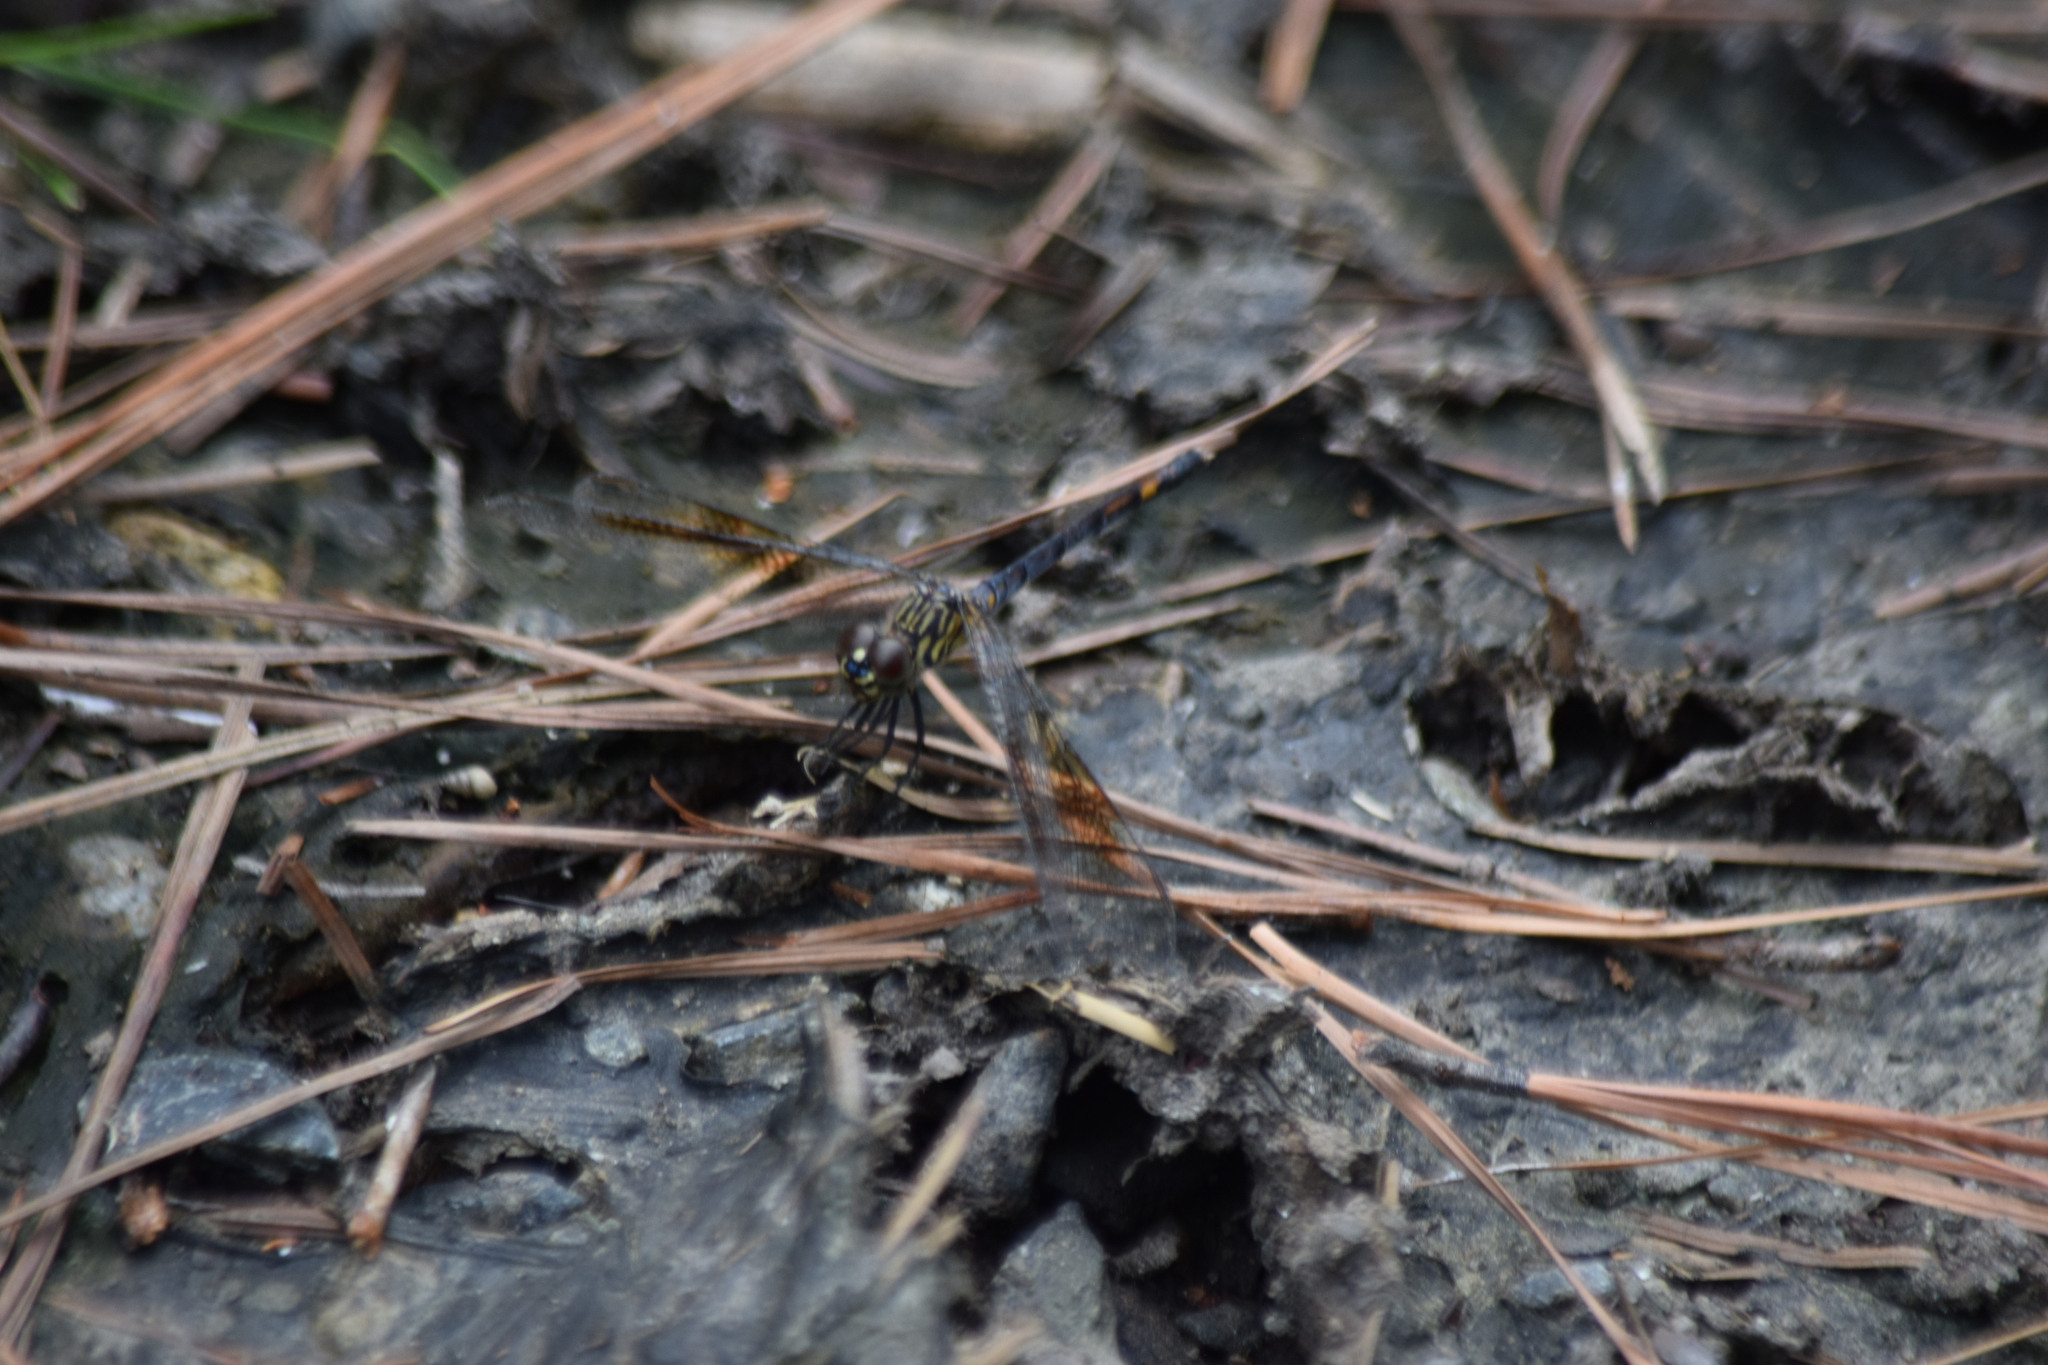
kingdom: Animalia
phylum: Arthropoda
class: Insecta
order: Odonata
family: Libellulidae
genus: Erythrodiplax
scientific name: Erythrodiplax berenice
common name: Seaside dragonlet
